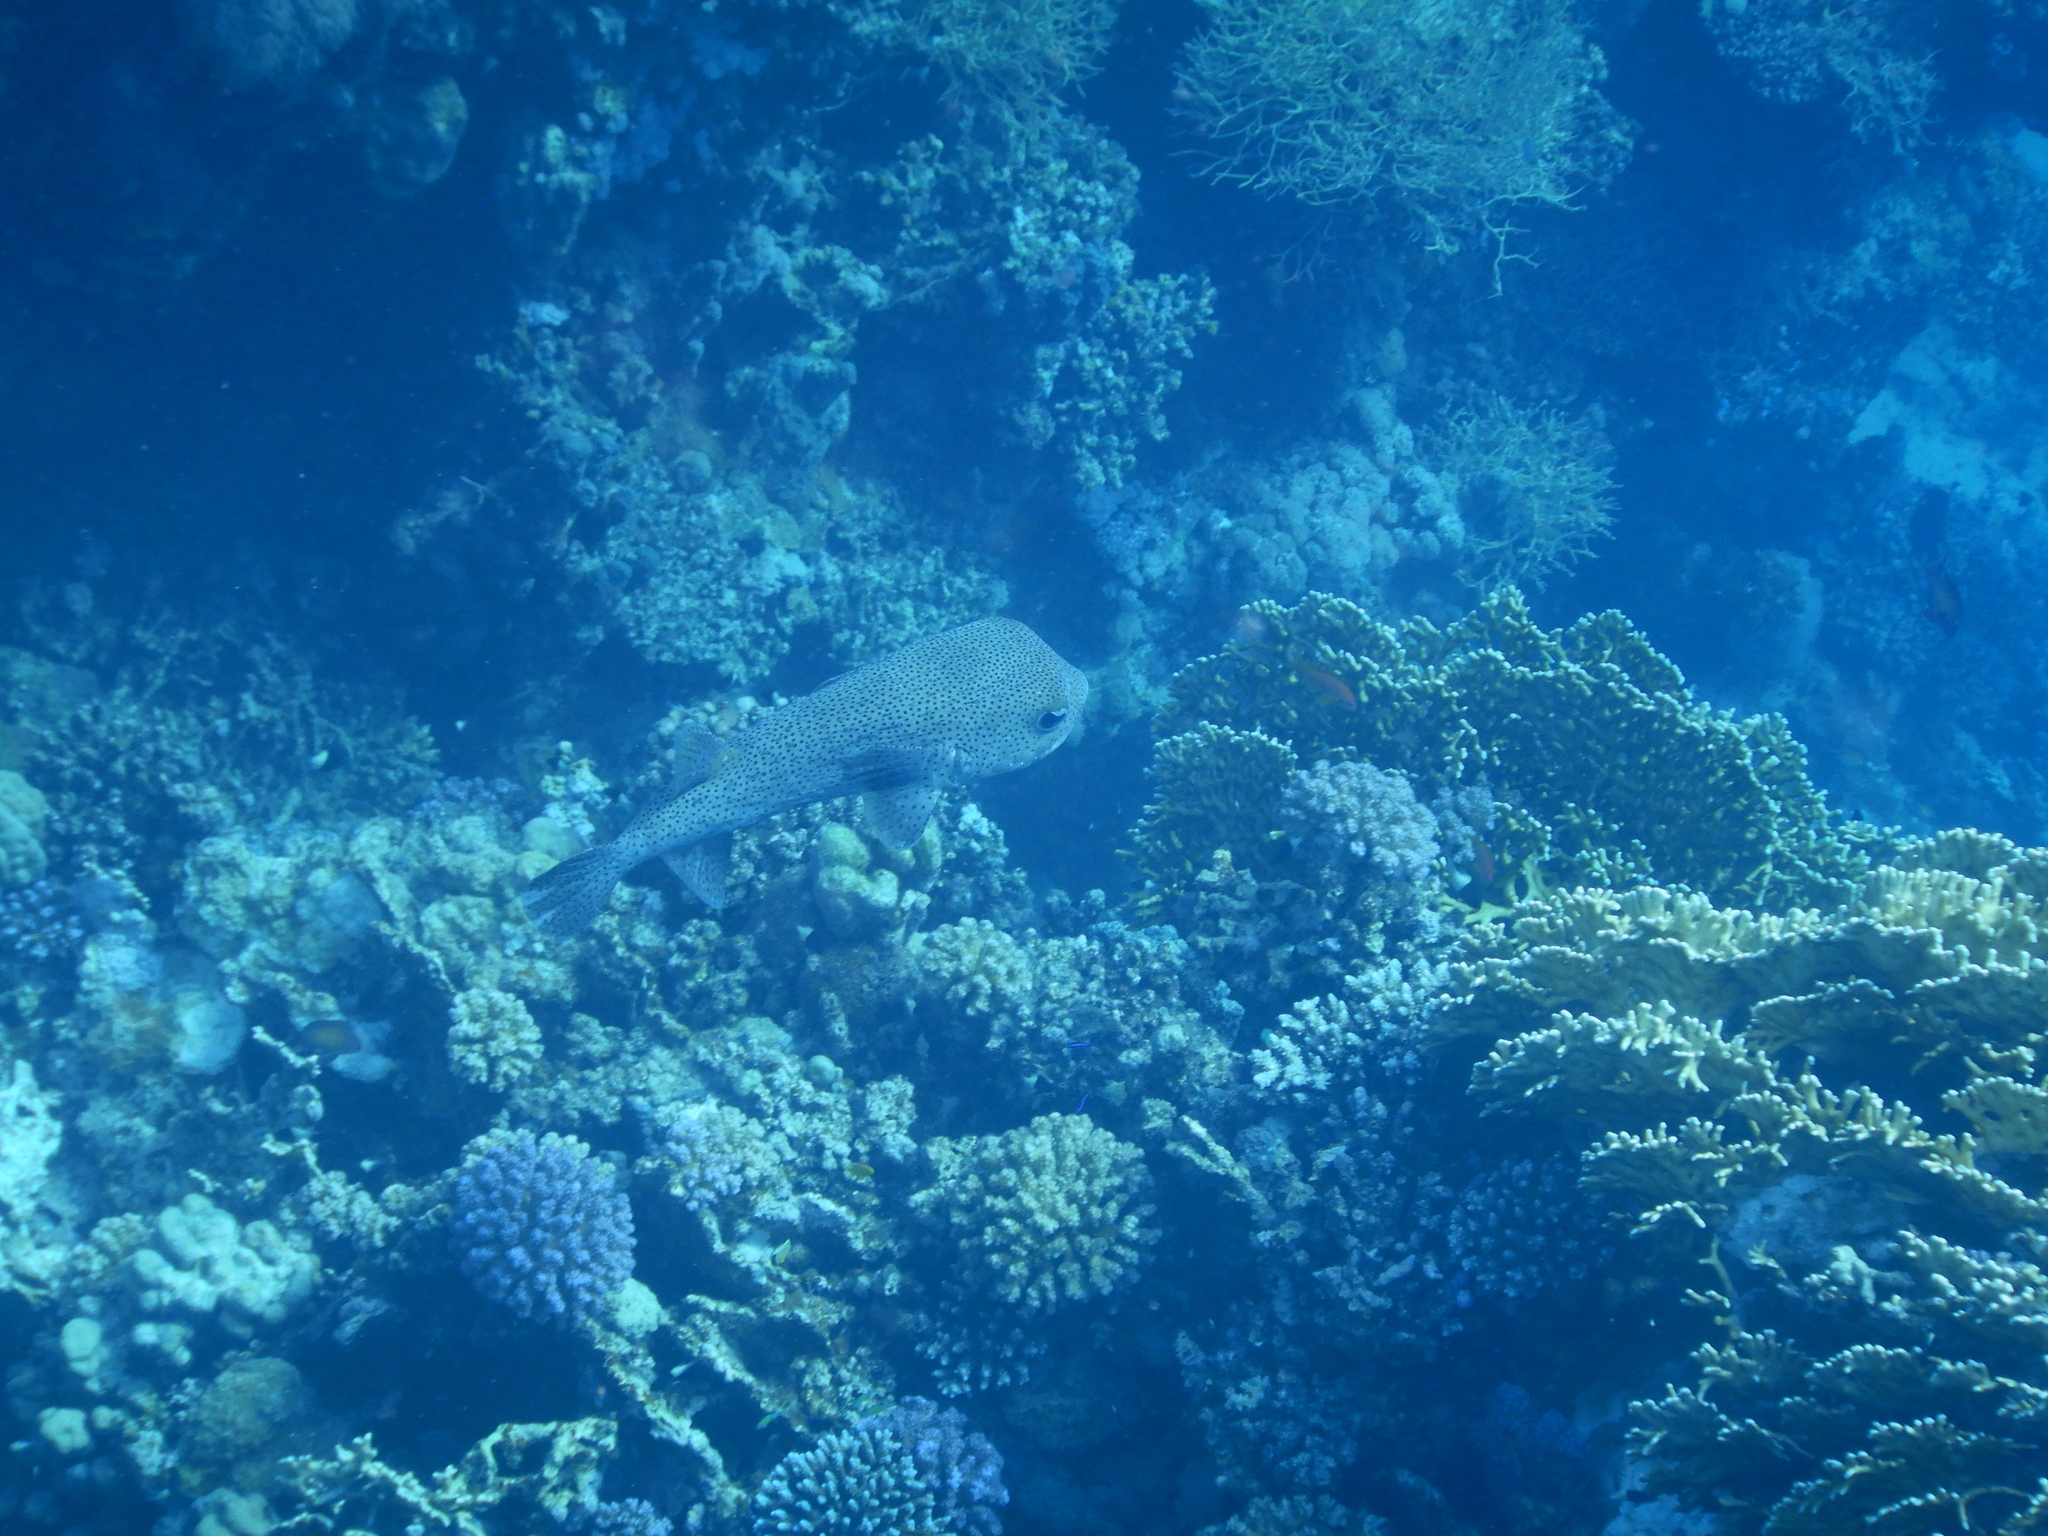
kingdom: Animalia
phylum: Chordata
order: Tetraodontiformes
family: Diodontidae
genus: Diodon
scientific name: Diodon hystrix
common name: Giant porcupinefish
